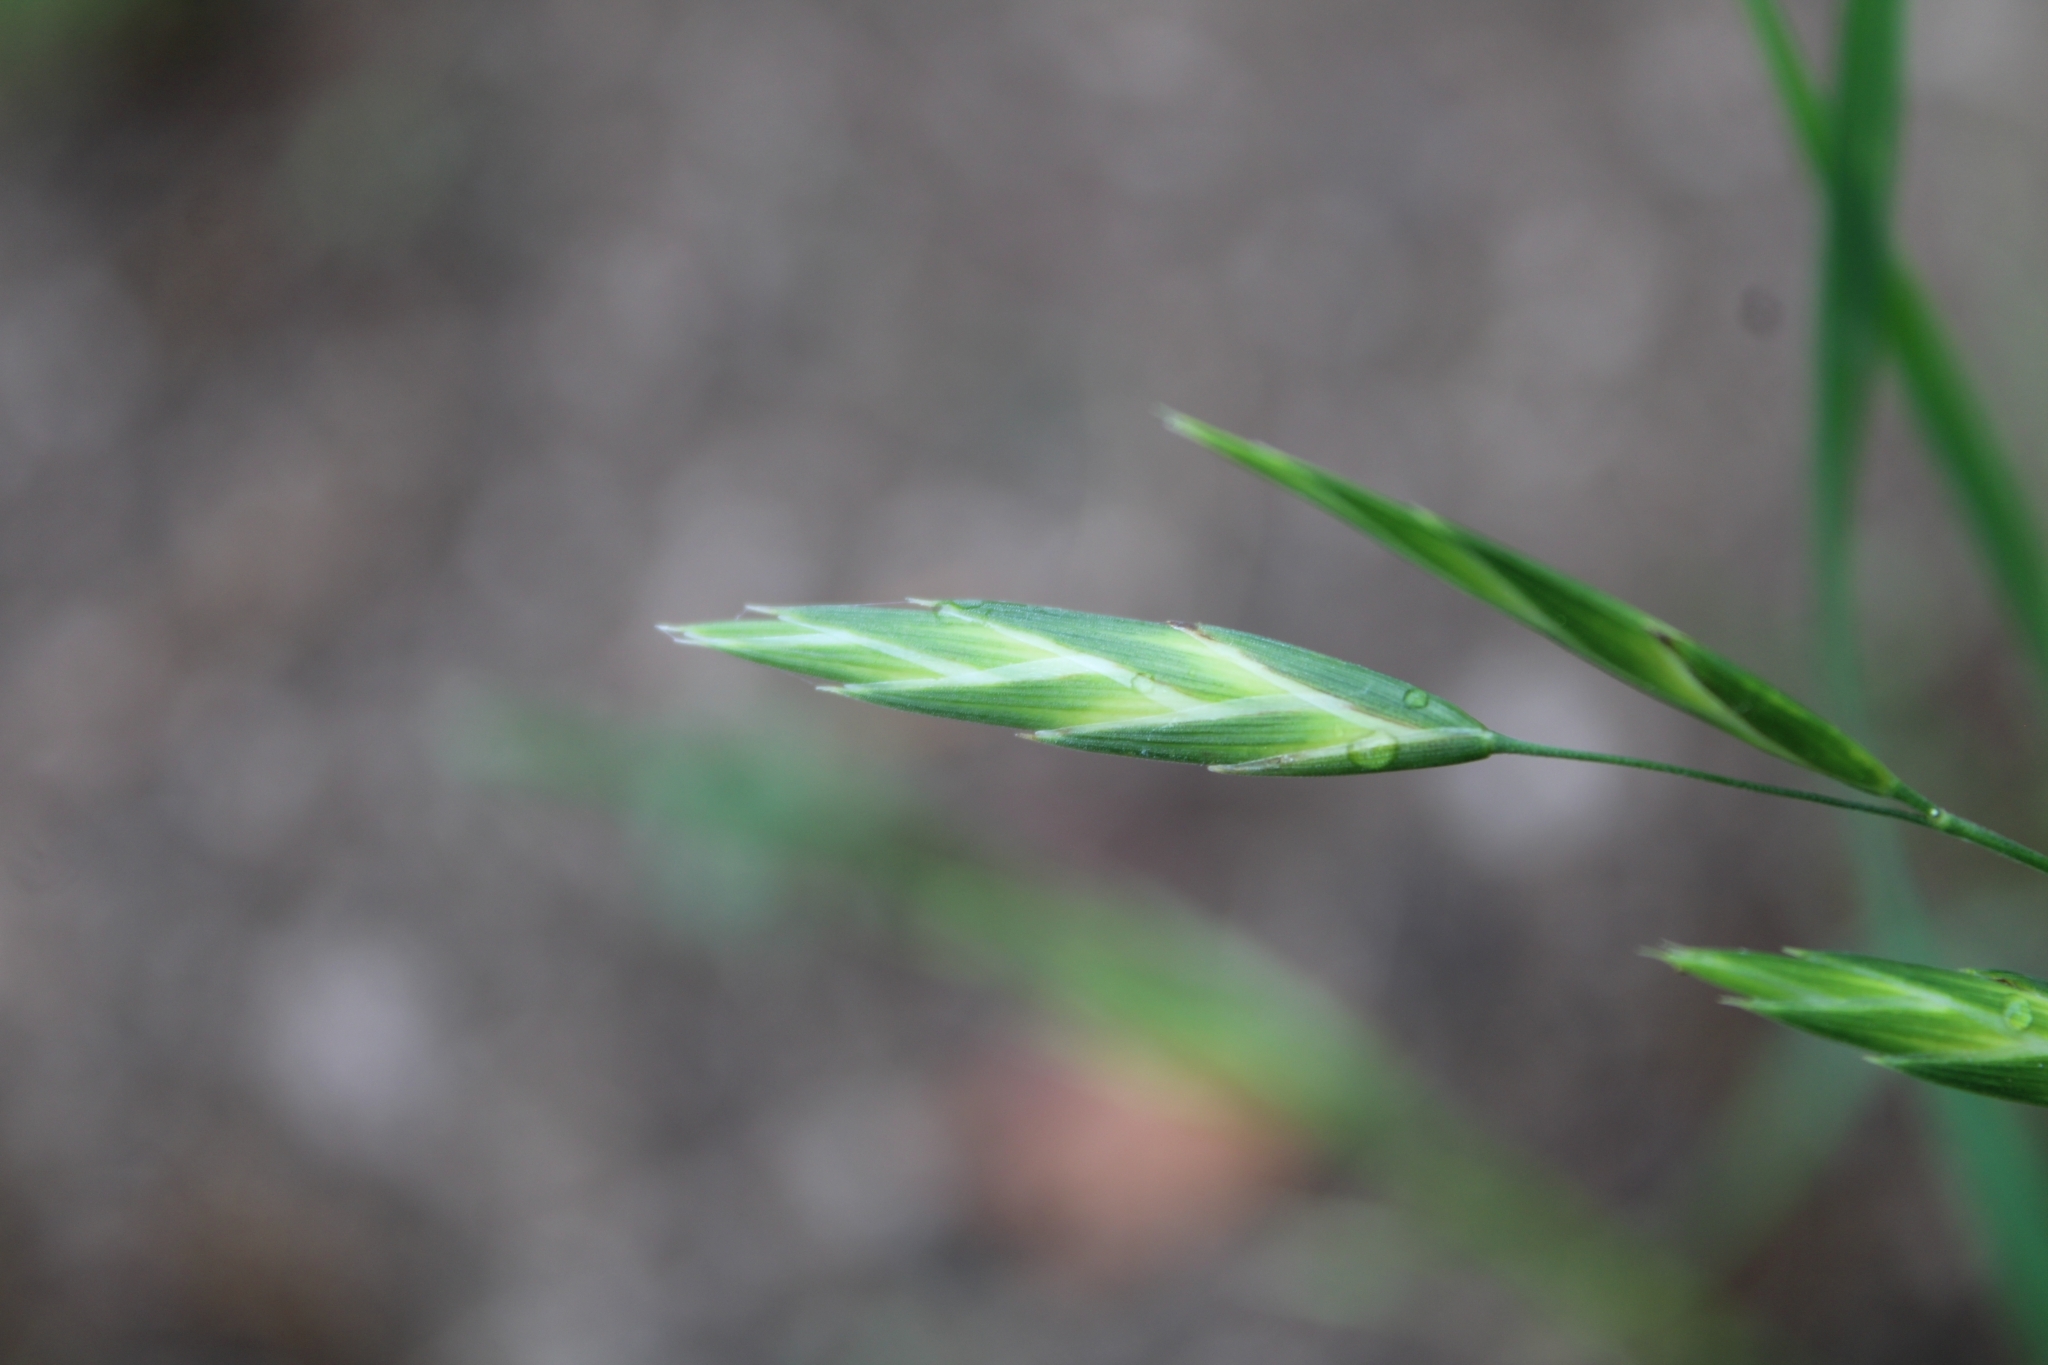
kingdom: Plantae
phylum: Tracheophyta
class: Liliopsida
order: Poales
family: Poaceae
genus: Bromus
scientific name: Bromus catharticus
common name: Rescuegrass
